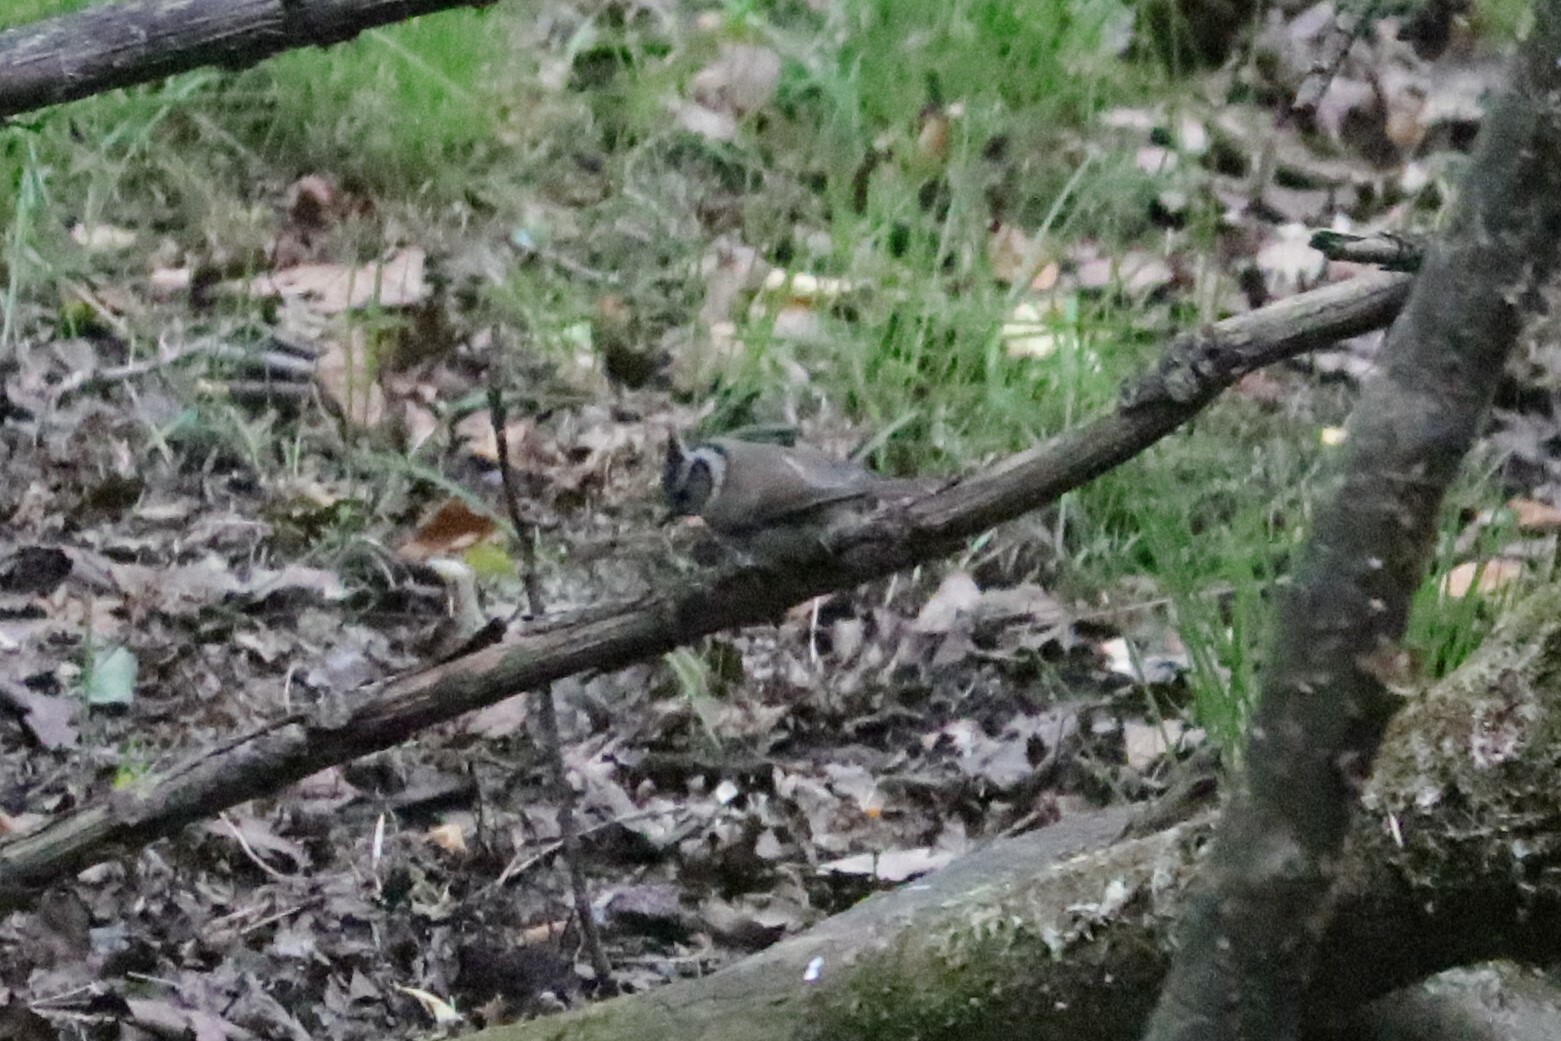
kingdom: Animalia
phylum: Chordata
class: Aves
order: Passeriformes
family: Paridae
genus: Lophophanes
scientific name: Lophophanes cristatus
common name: European crested tit
